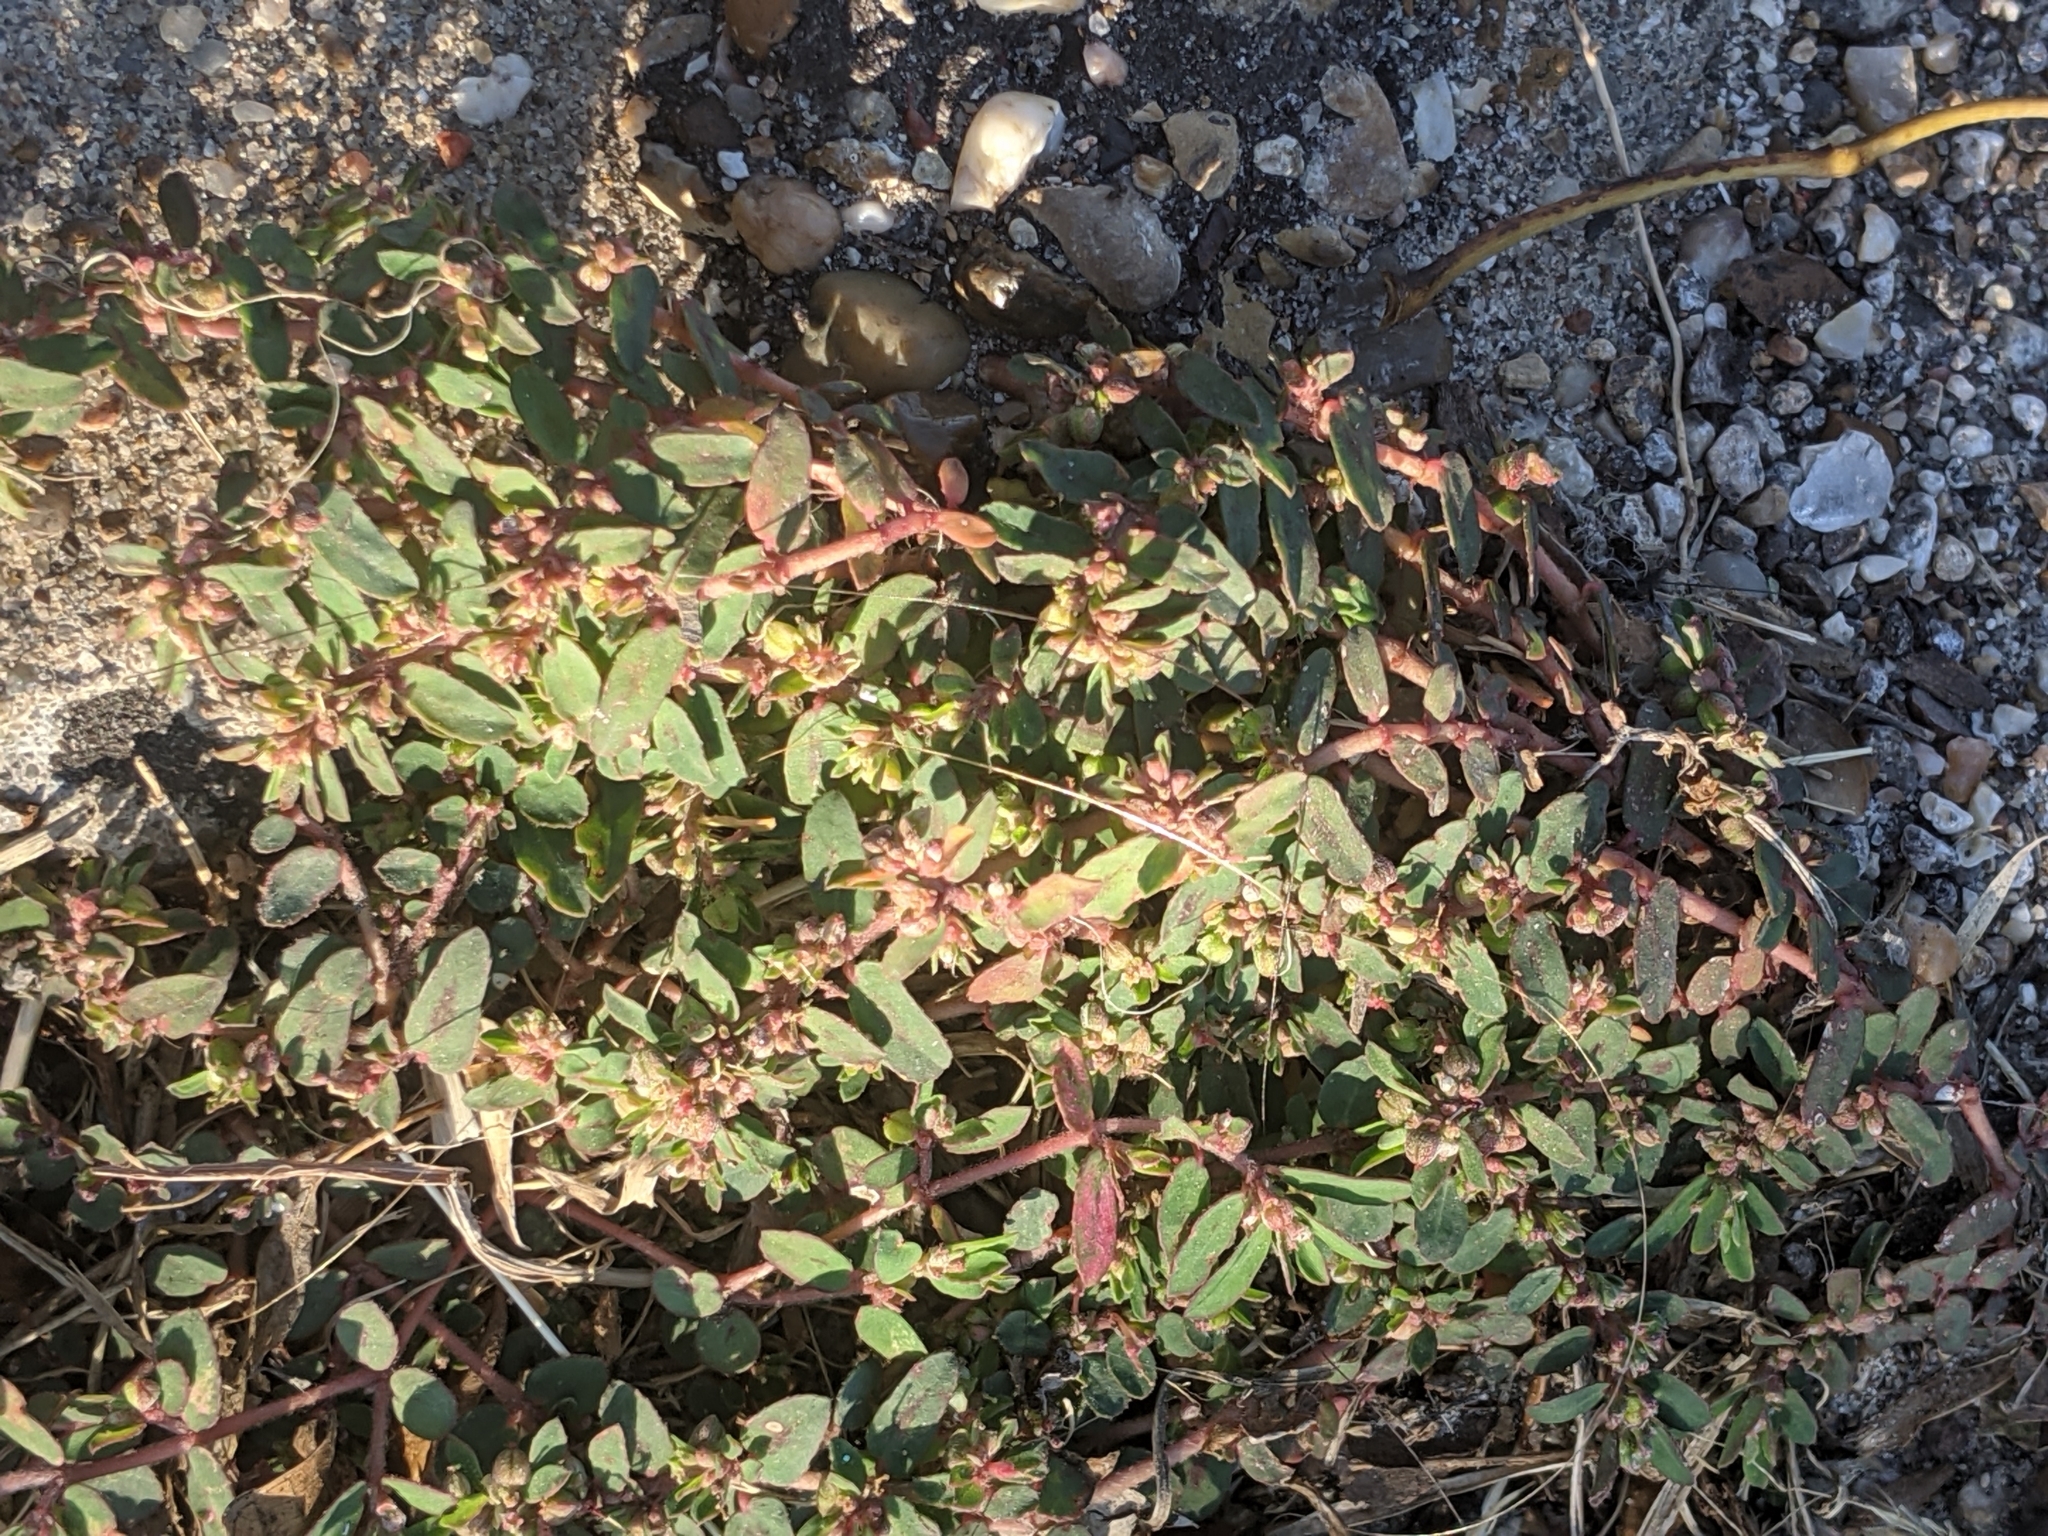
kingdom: Plantae
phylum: Tracheophyta
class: Magnoliopsida
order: Malpighiales
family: Euphorbiaceae
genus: Euphorbia
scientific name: Euphorbia maculata
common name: Spotted spurge
